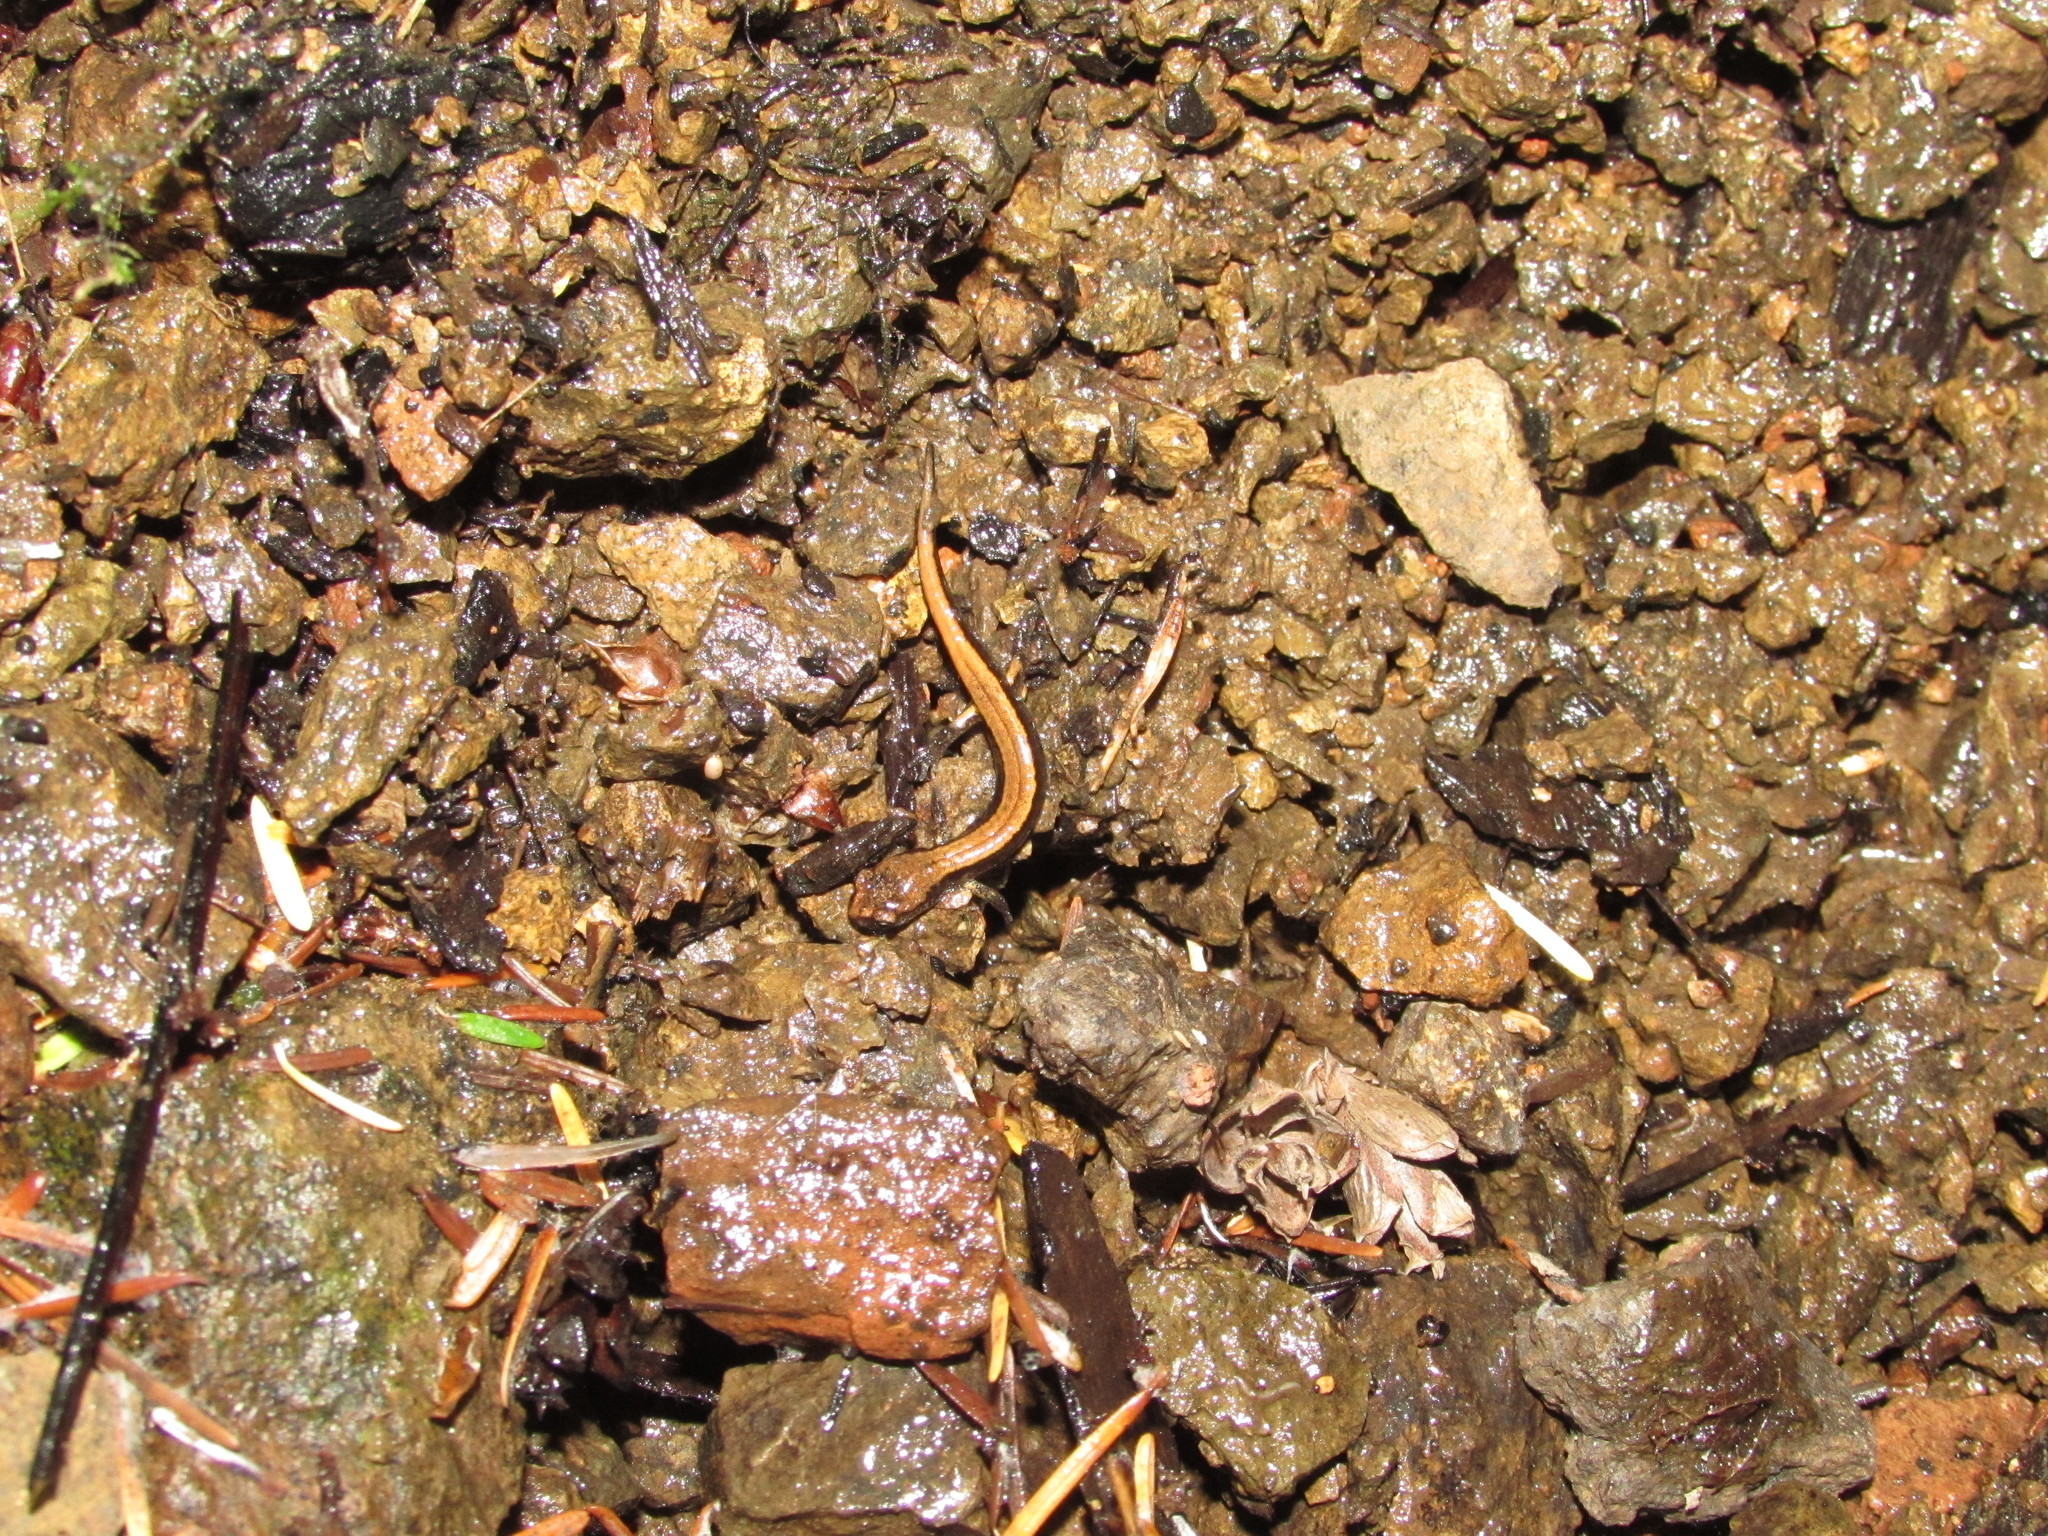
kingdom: Animalia
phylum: Chordata
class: Amphibia
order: Caudata
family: Plethodontidae
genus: Plethodon
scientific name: Plethodon vehiculum
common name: Western red-backed salamander
